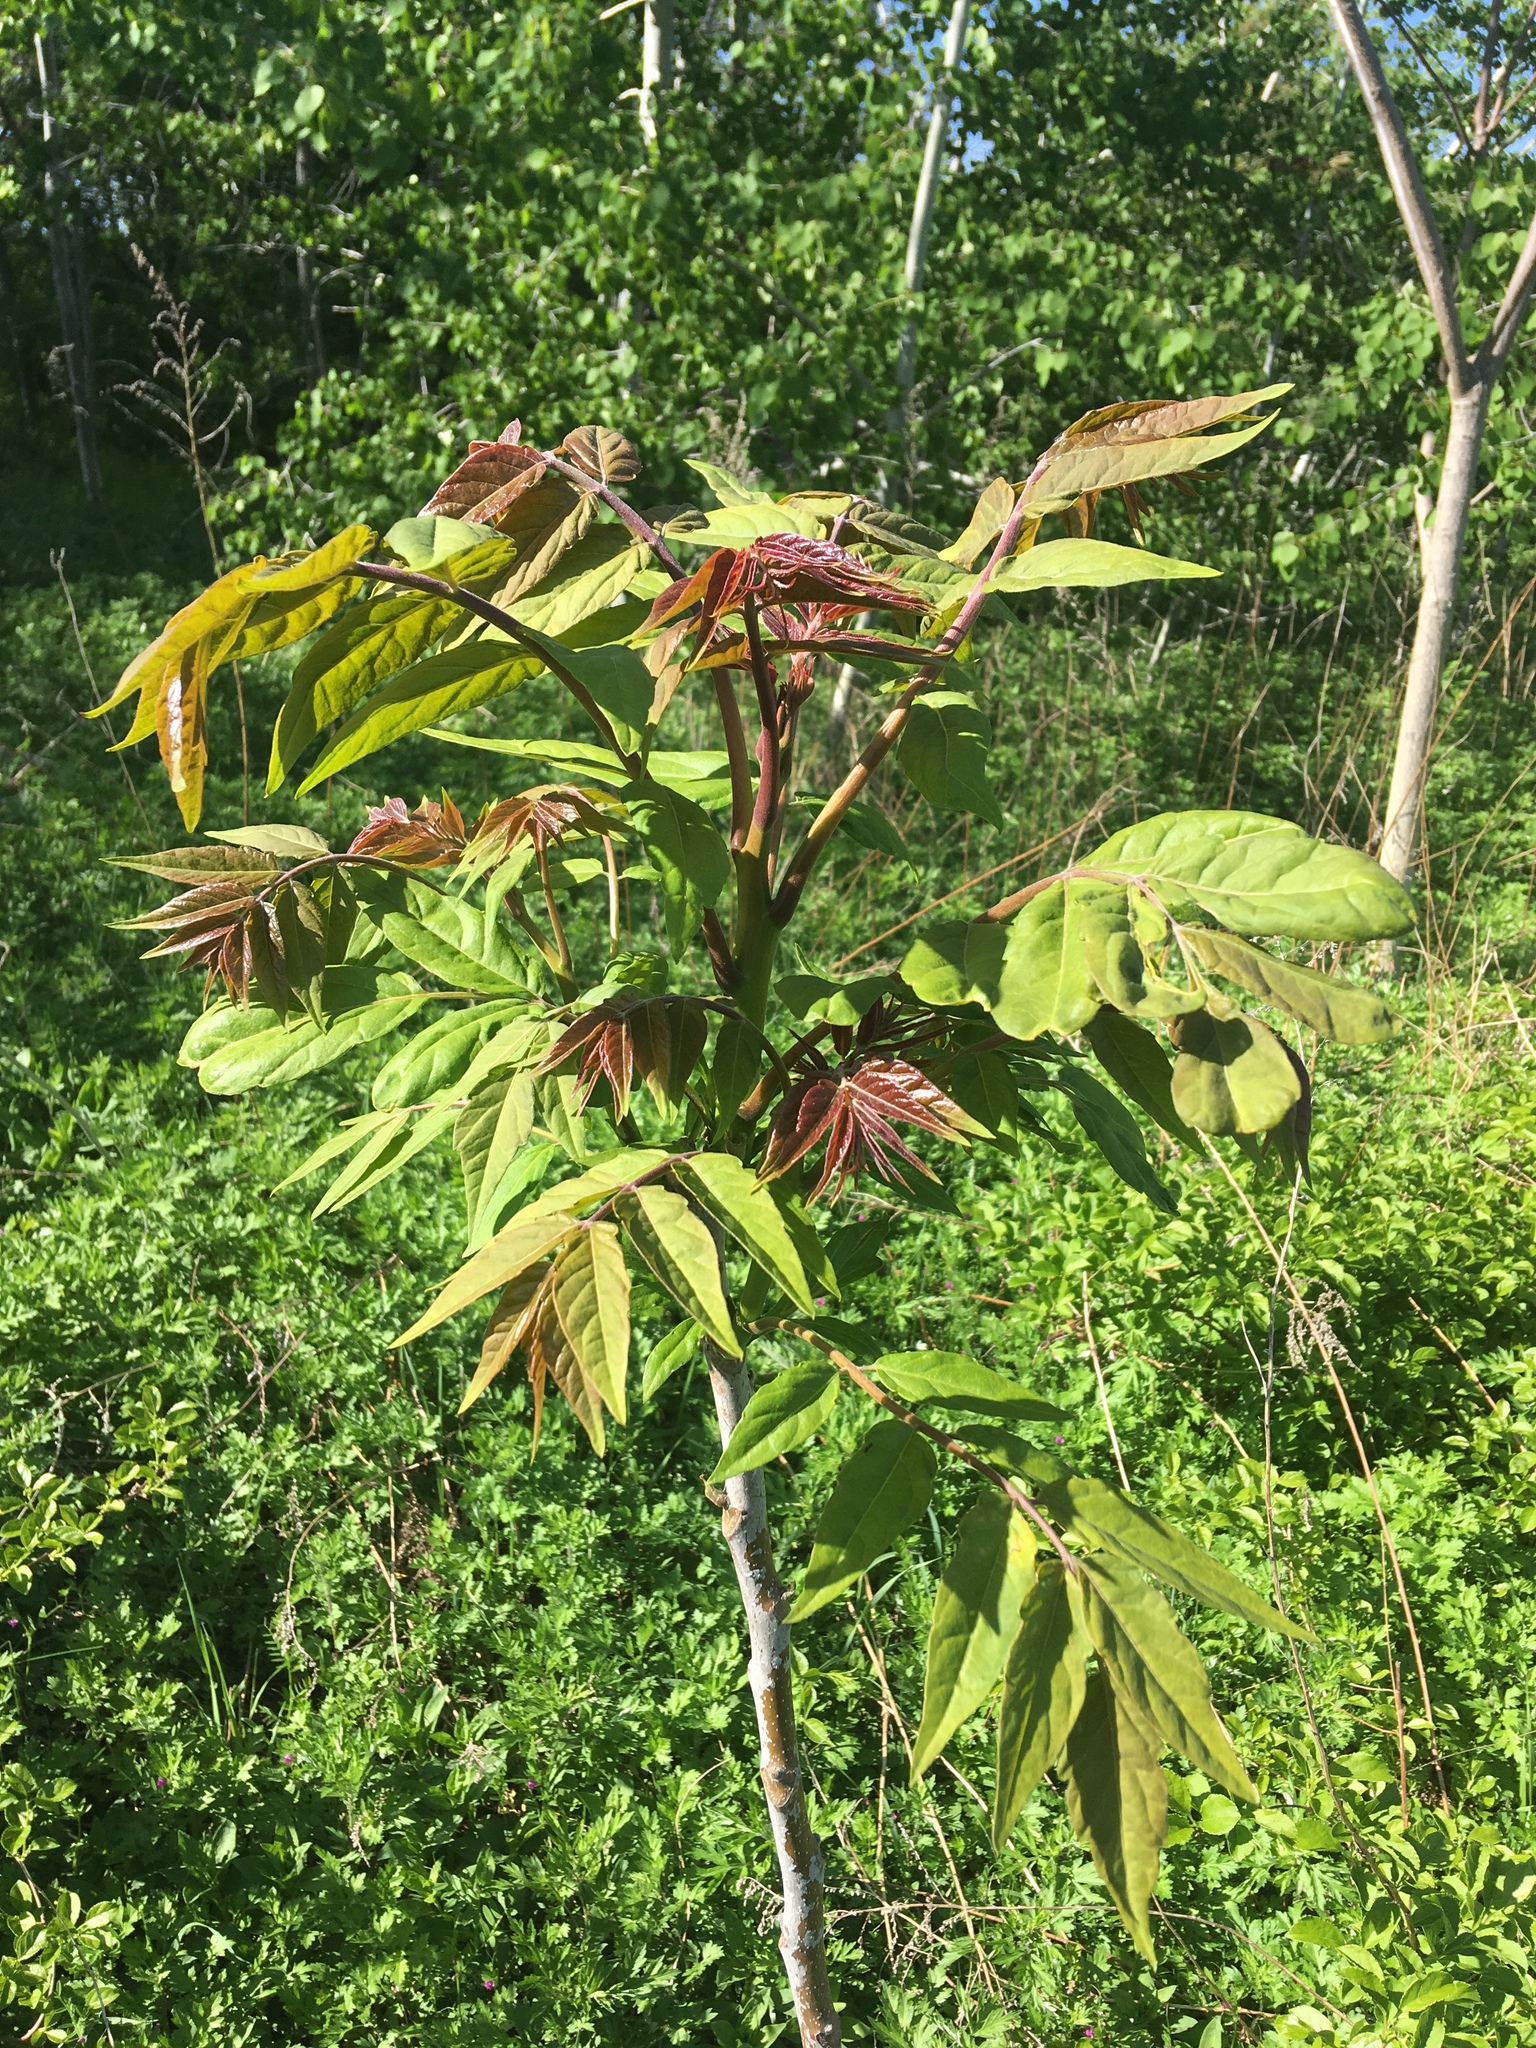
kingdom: Plantae
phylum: Tracheophyta
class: Magnoliopsida
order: Sapindales
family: Simaroubaceae
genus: Ailanthus
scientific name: Ailanthus altissima
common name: Tree-of-heaven
